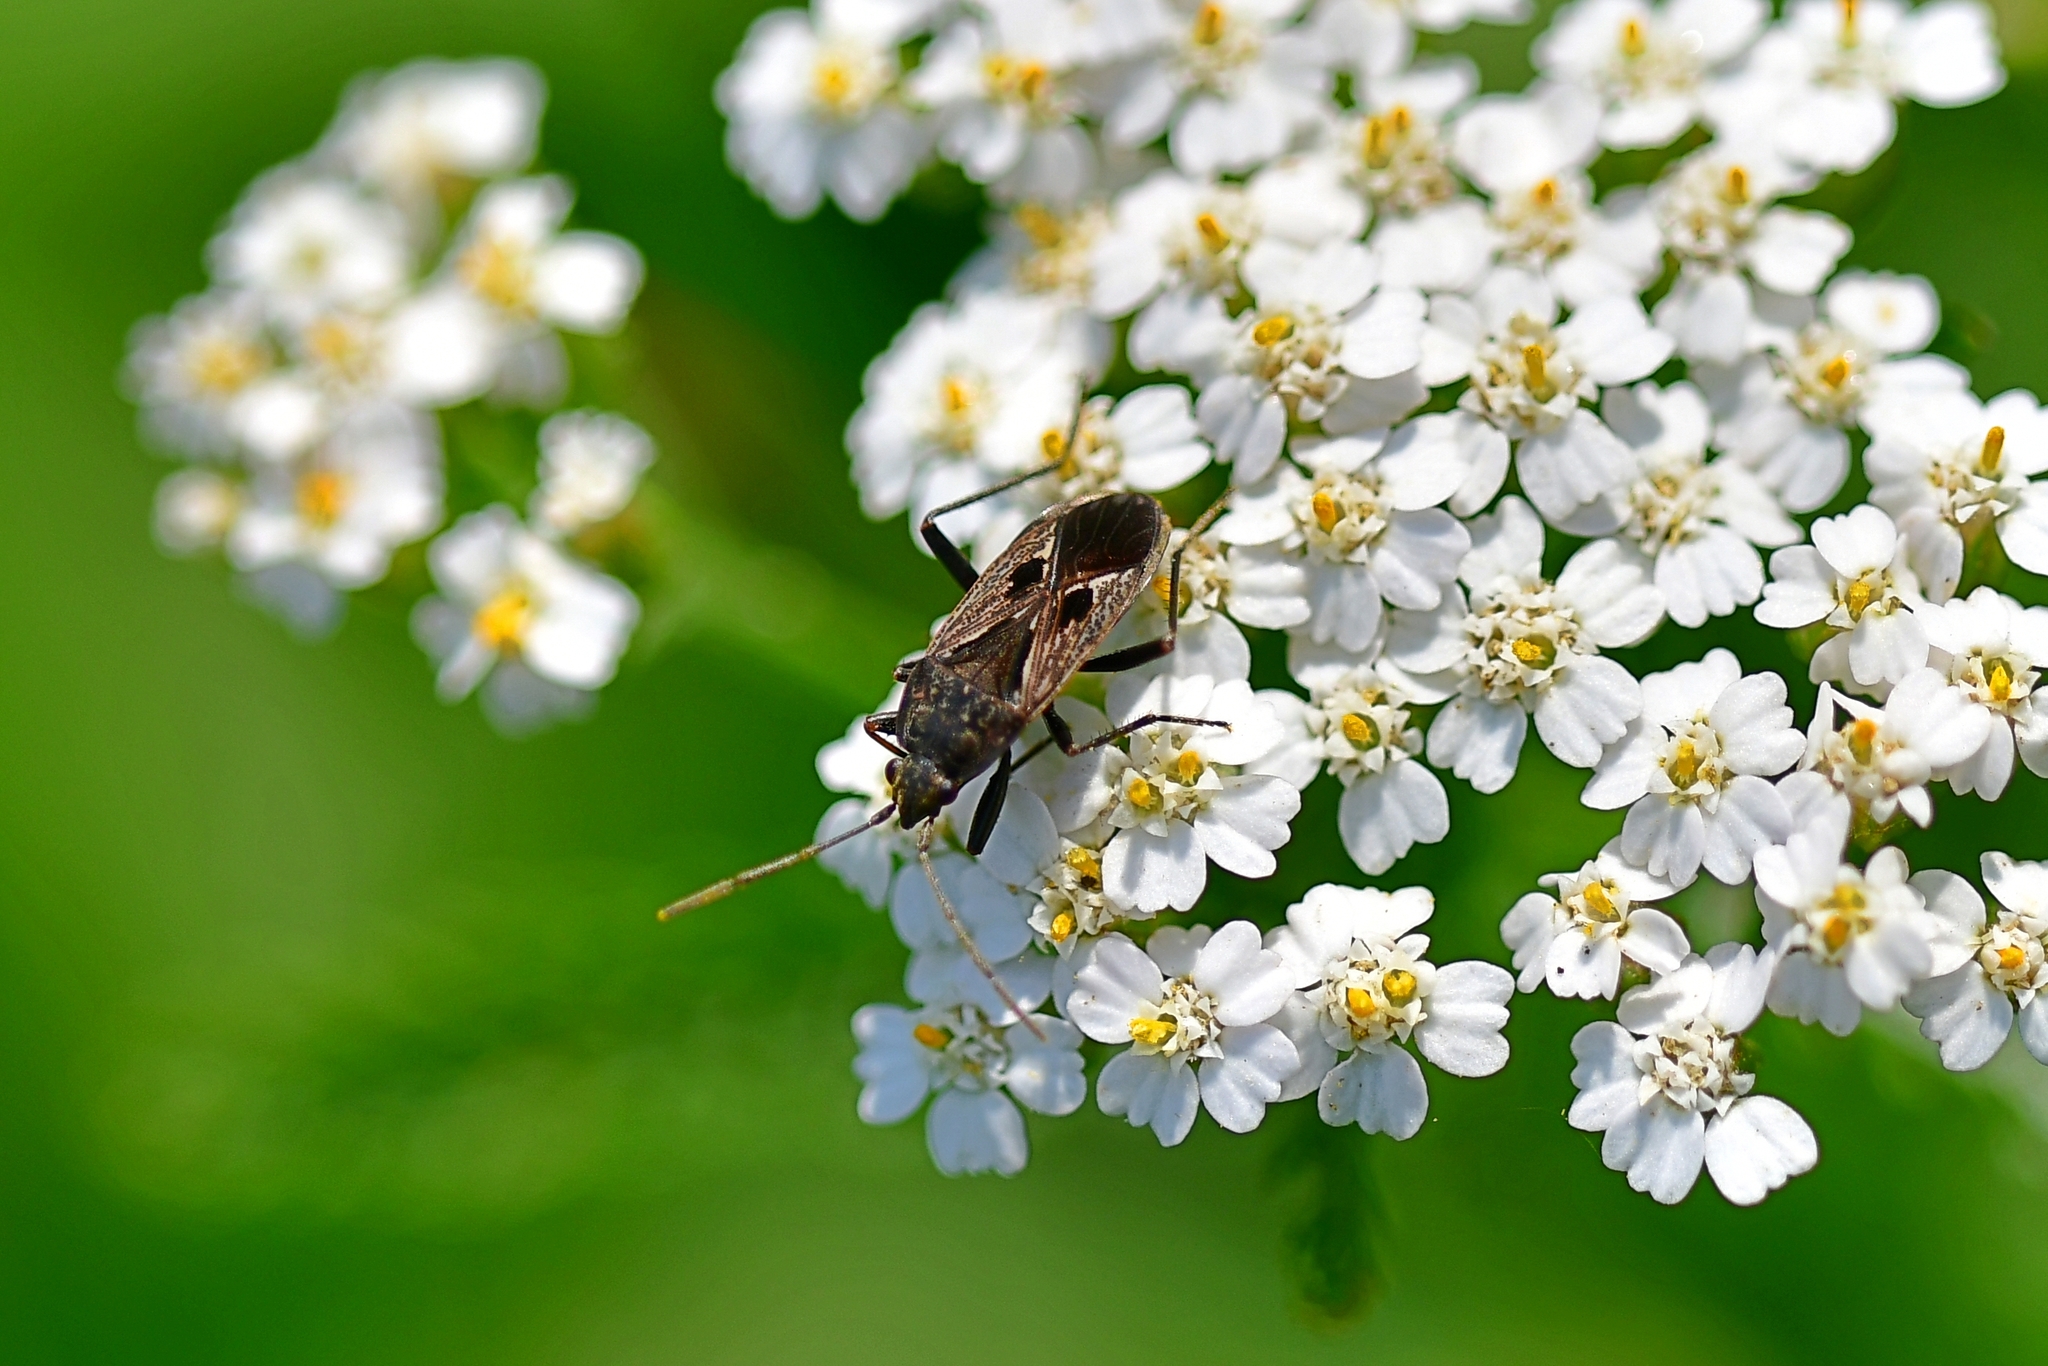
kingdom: Animalia
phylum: Arthropoda
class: Insecta
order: Hemiptera
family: Rhyparochromidae
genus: Rhyparochromus
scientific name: Rhyparochromus pini
